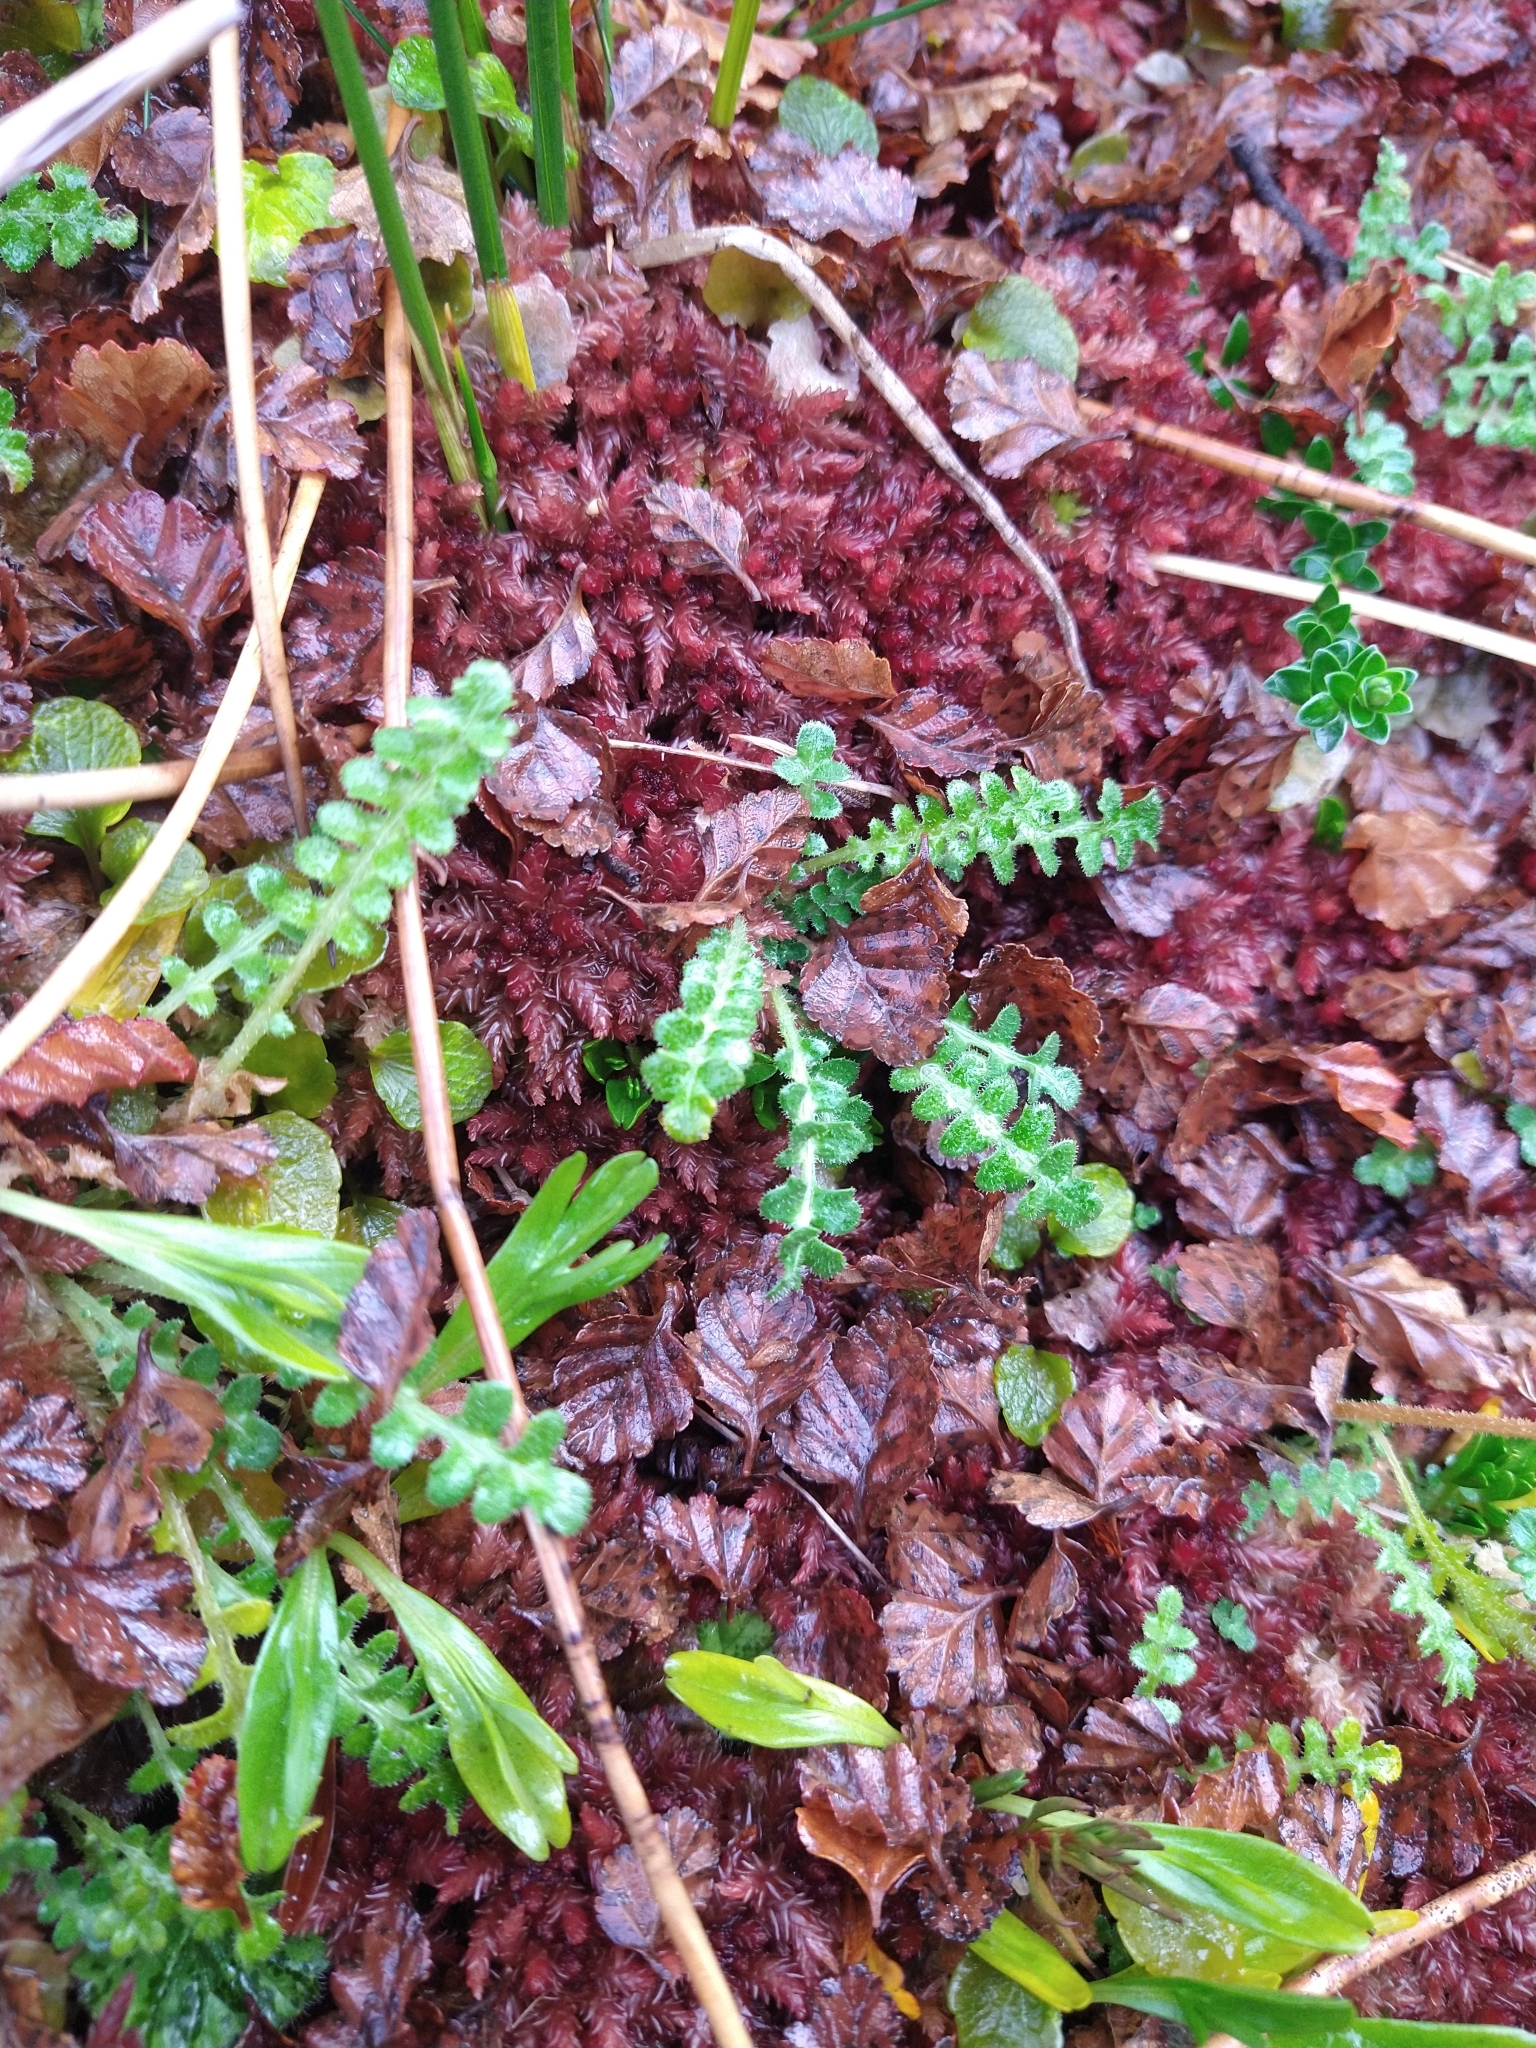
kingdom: Plantae
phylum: Tracheophyta
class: Magnoliopsida
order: Asterales
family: Asteraceae
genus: Perezia
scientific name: Perezia magellanica
